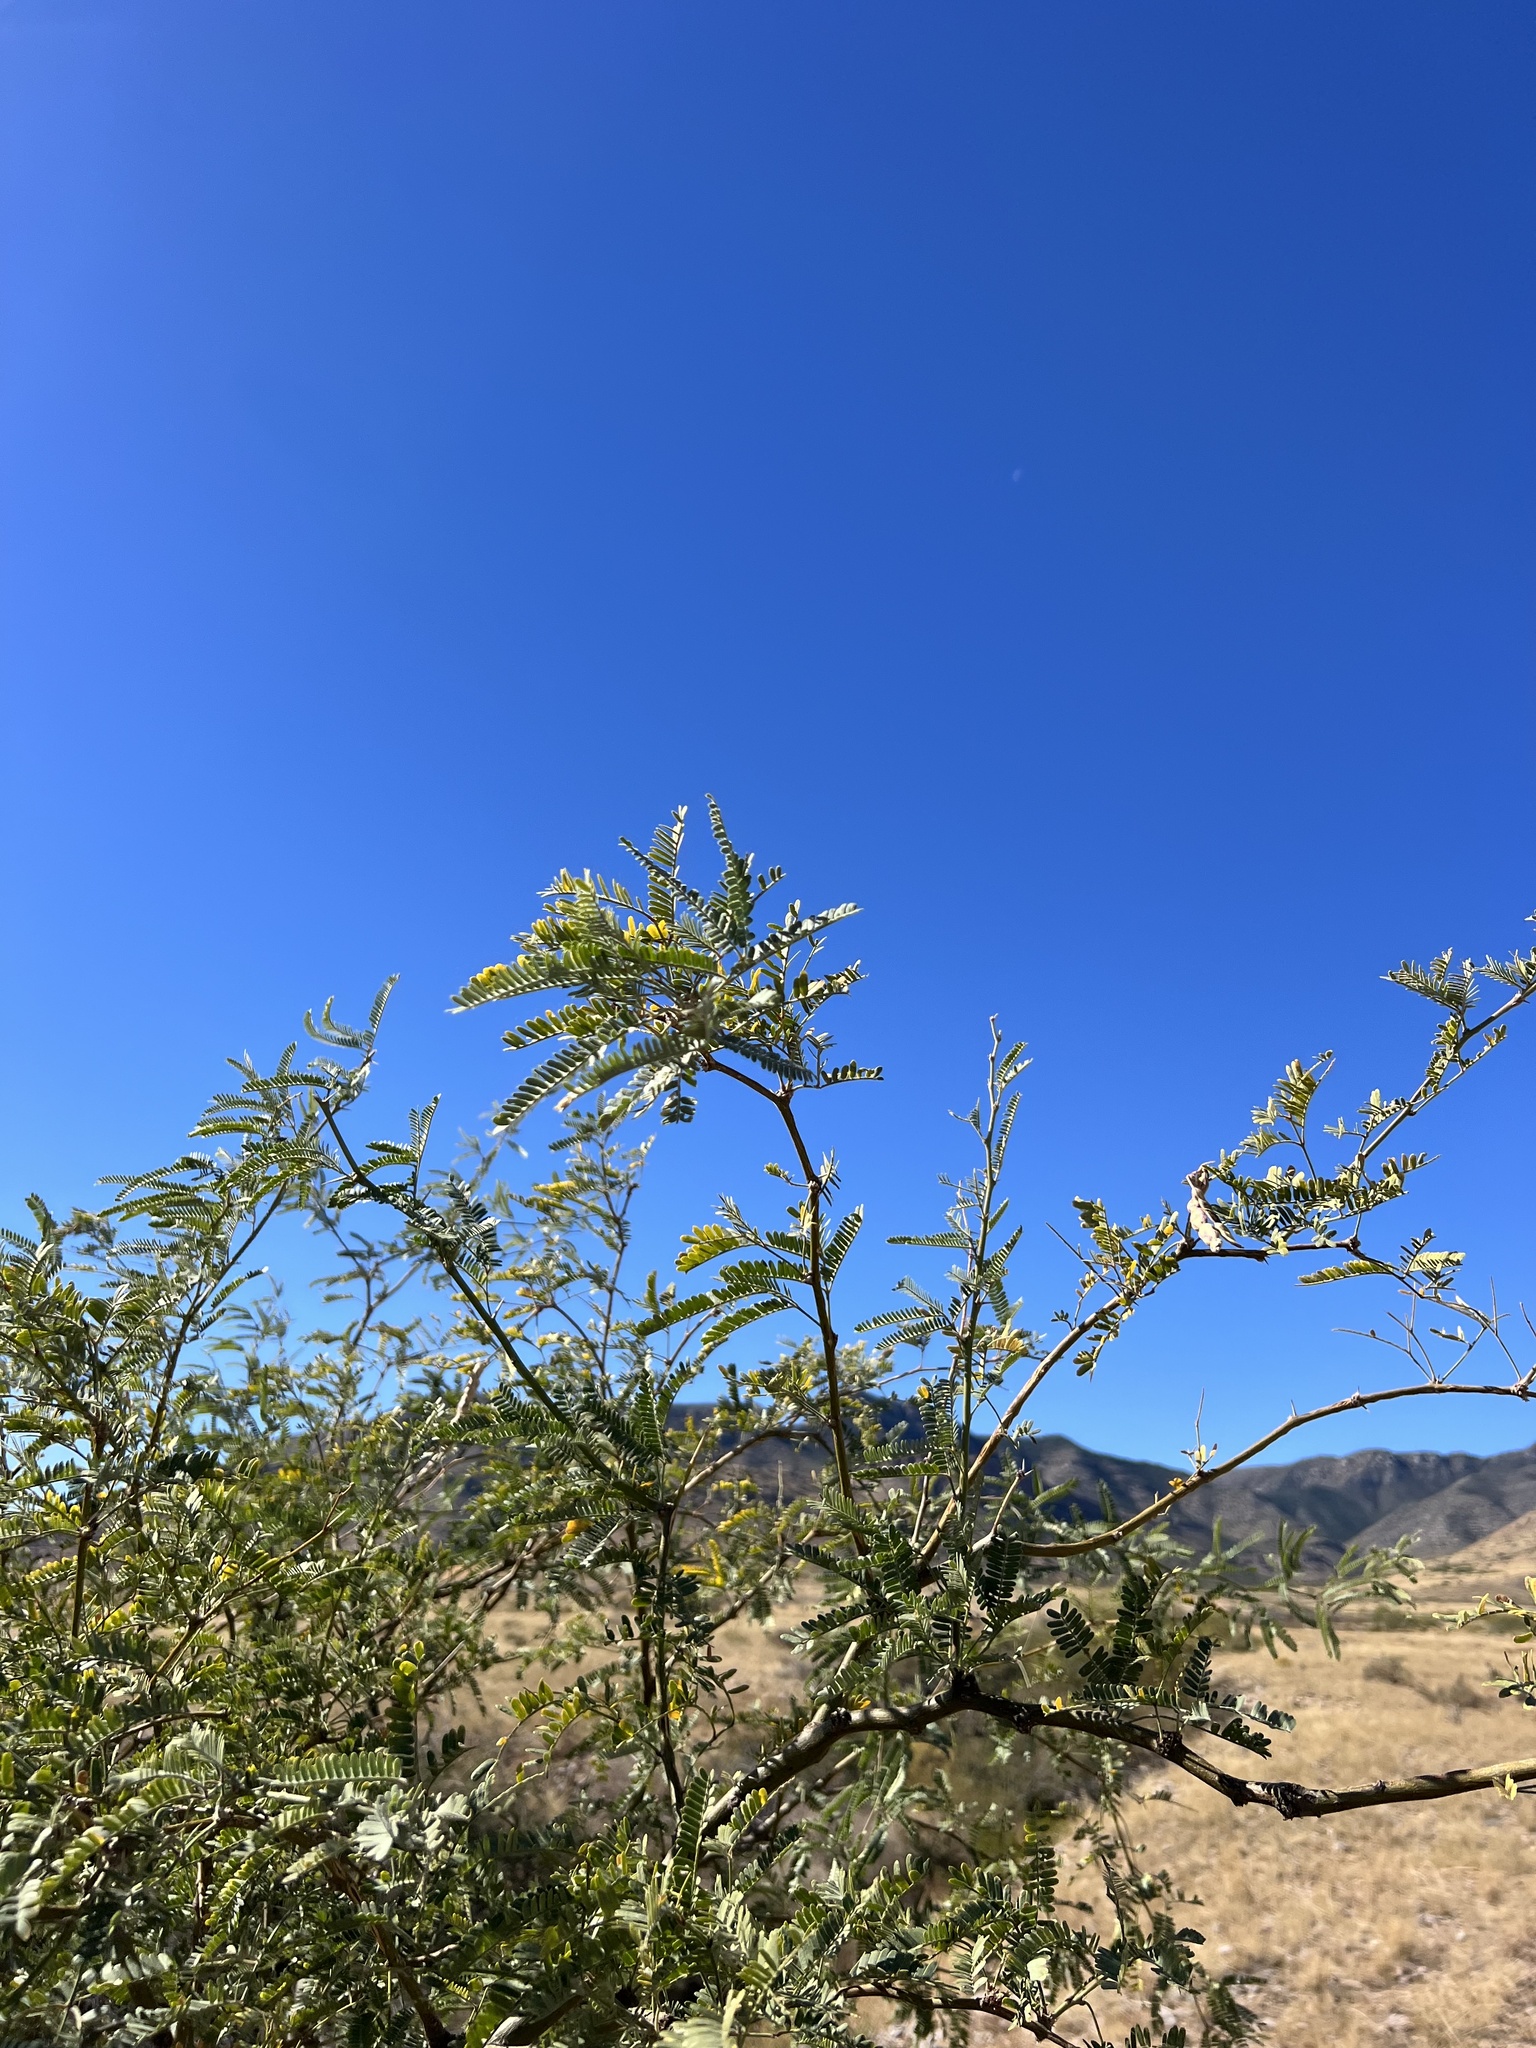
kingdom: Plantae
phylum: Tracheophyta
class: Magnoliopsida
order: Fabales
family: Fabaceae
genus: Prosopis
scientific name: Prosopis velutina
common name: Velvet mesquite
